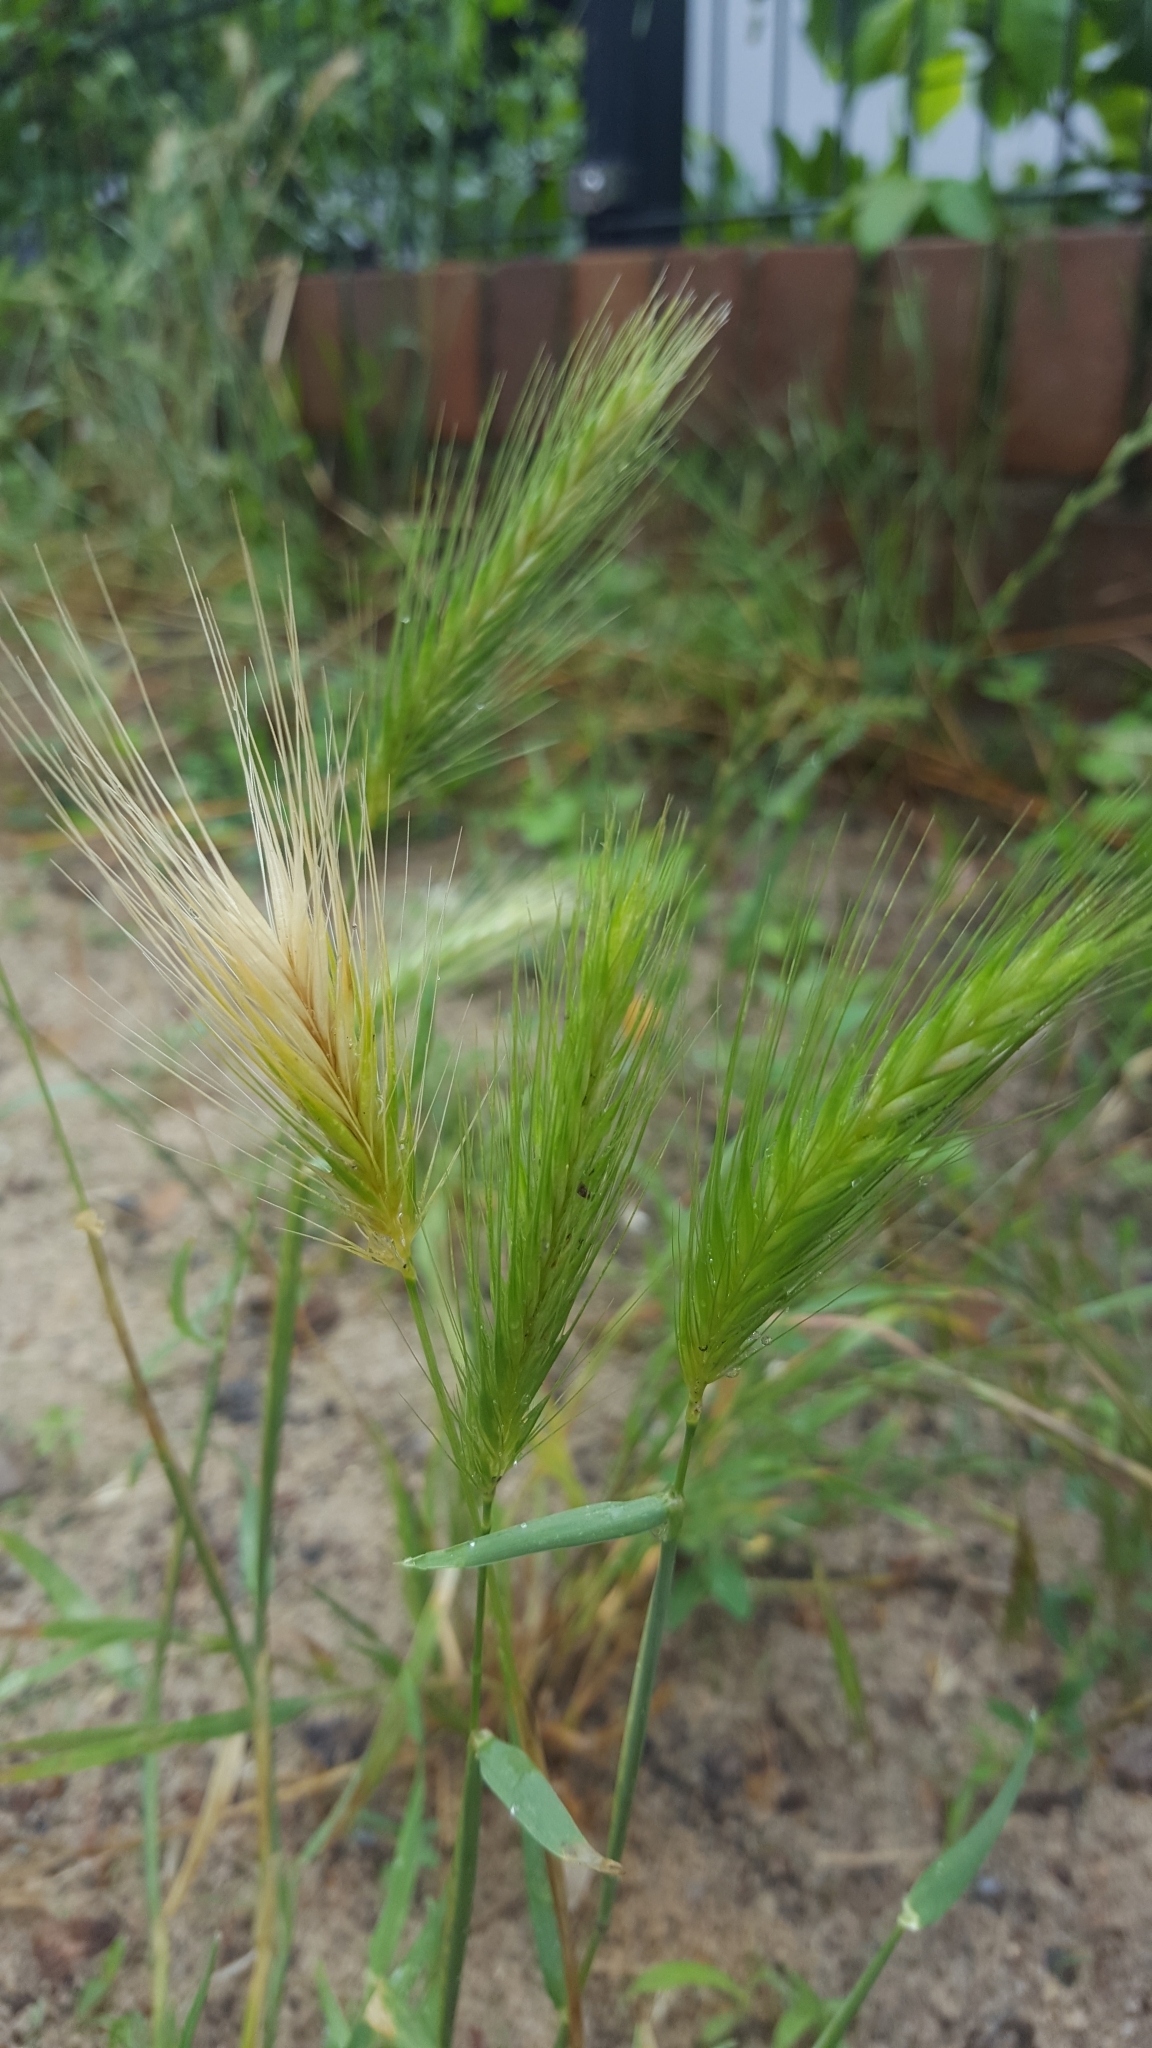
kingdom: Plantae
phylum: Tracheophyta
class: Liliopsida
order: Poales
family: Poaceae
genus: Hordeum
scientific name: Hordeum murinum
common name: Wall barley
